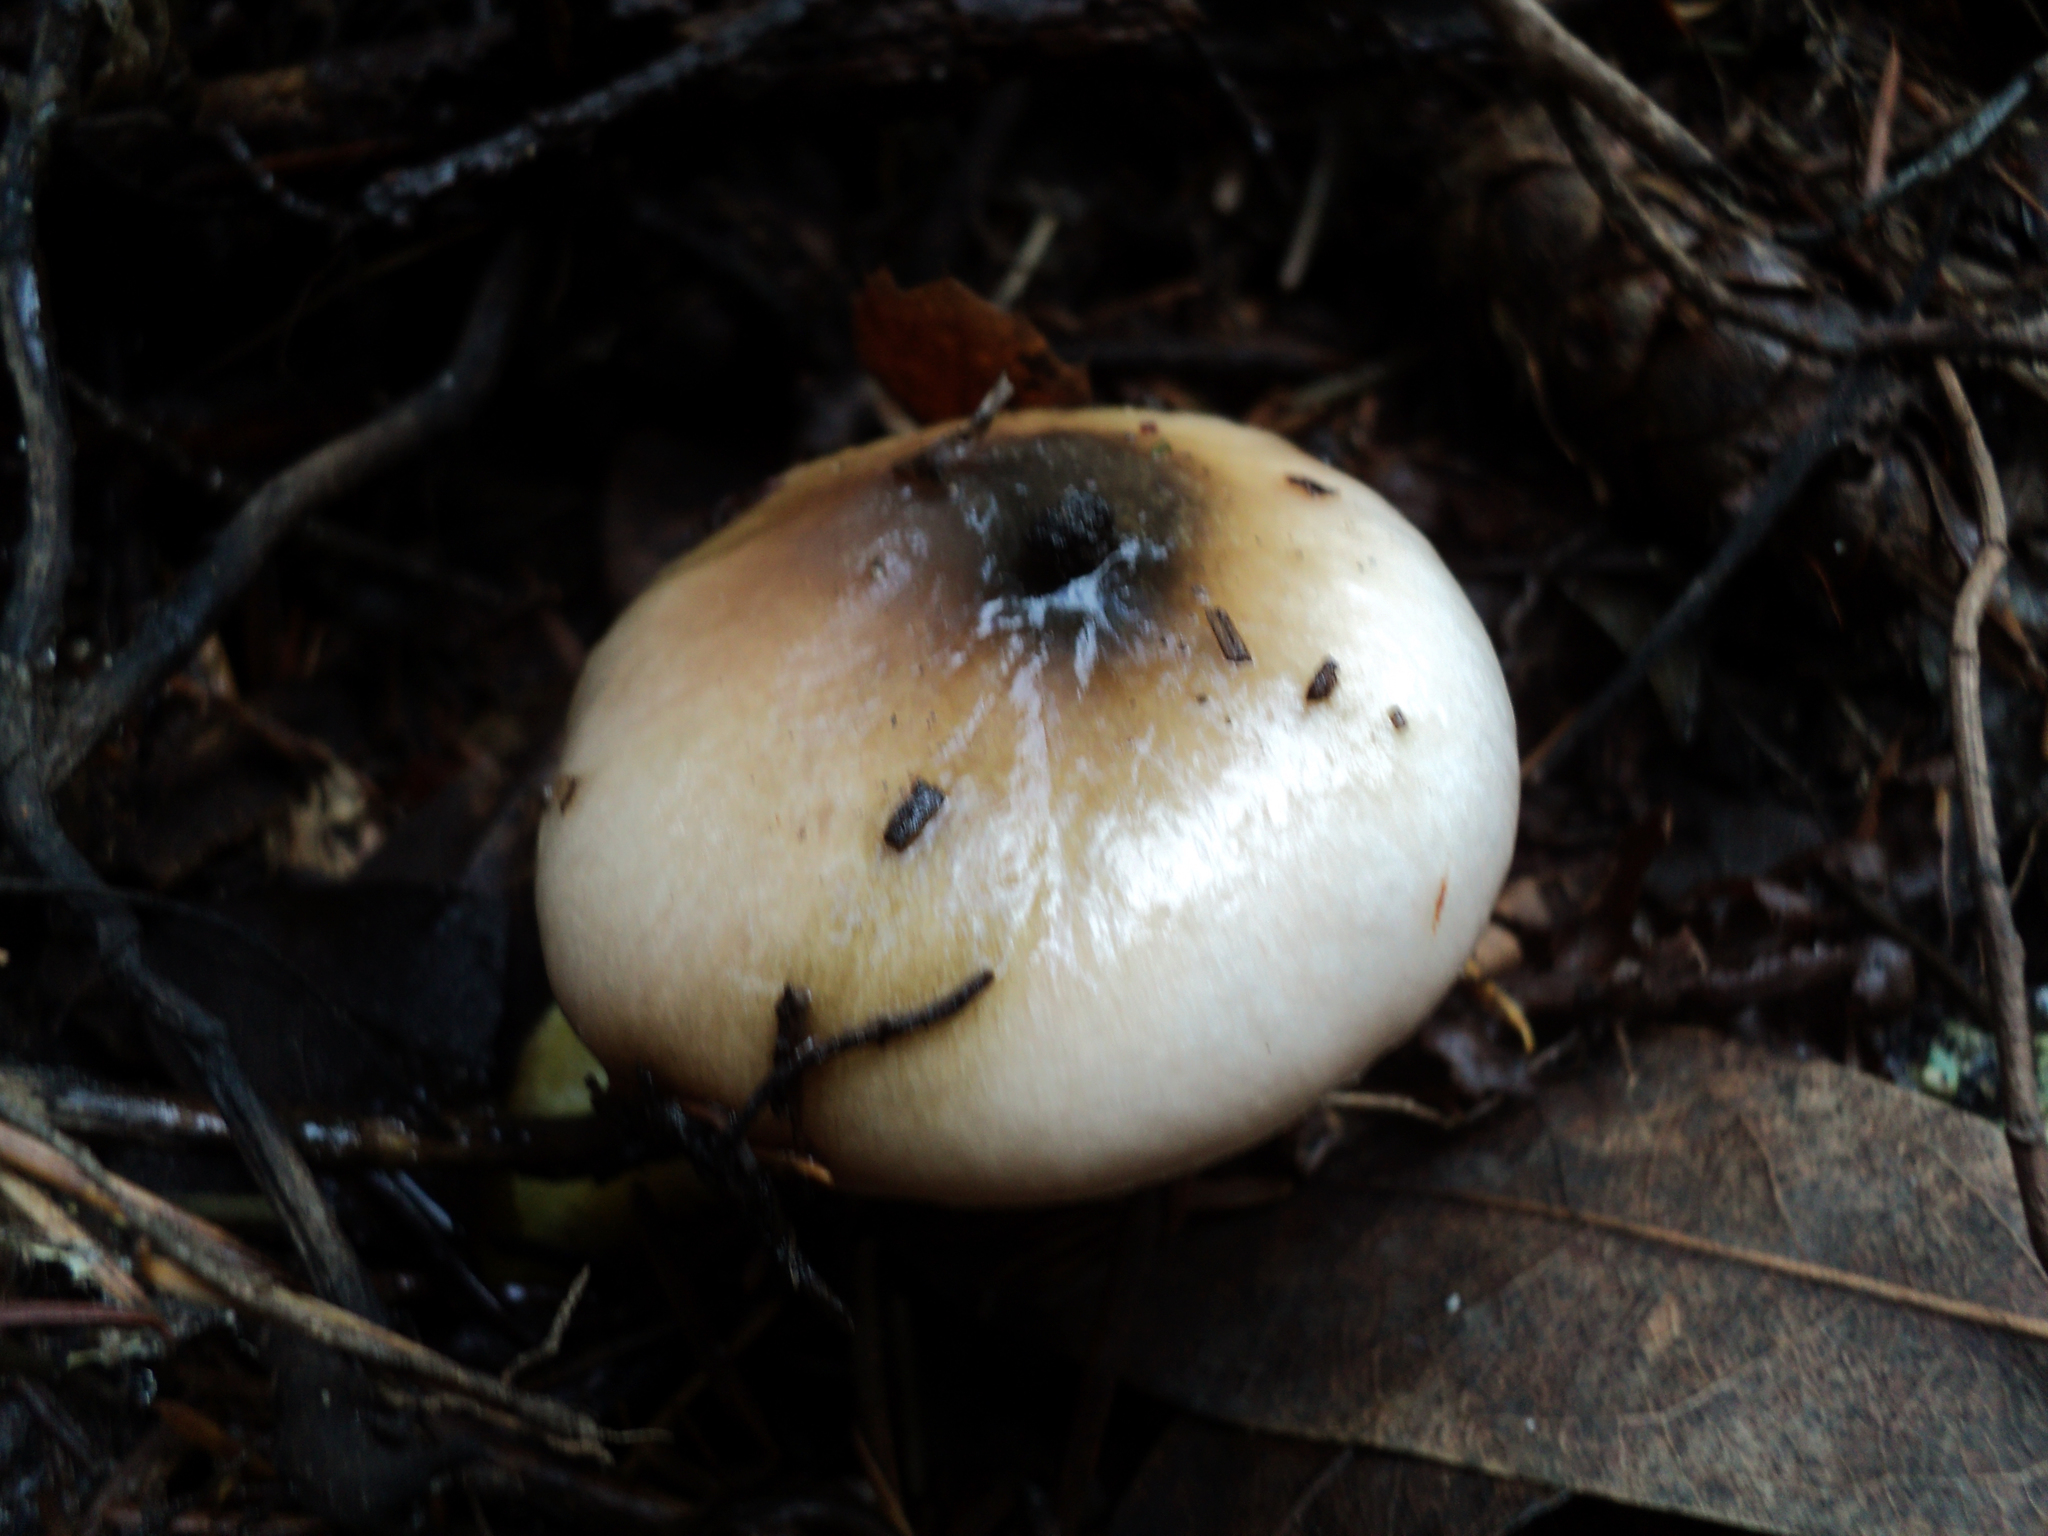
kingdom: Fungi
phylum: Basidiomycota
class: Agaricomycetes
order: Boletales
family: Gomphidiaceae
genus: Gomphidius
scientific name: Gomphidius oregonensis
